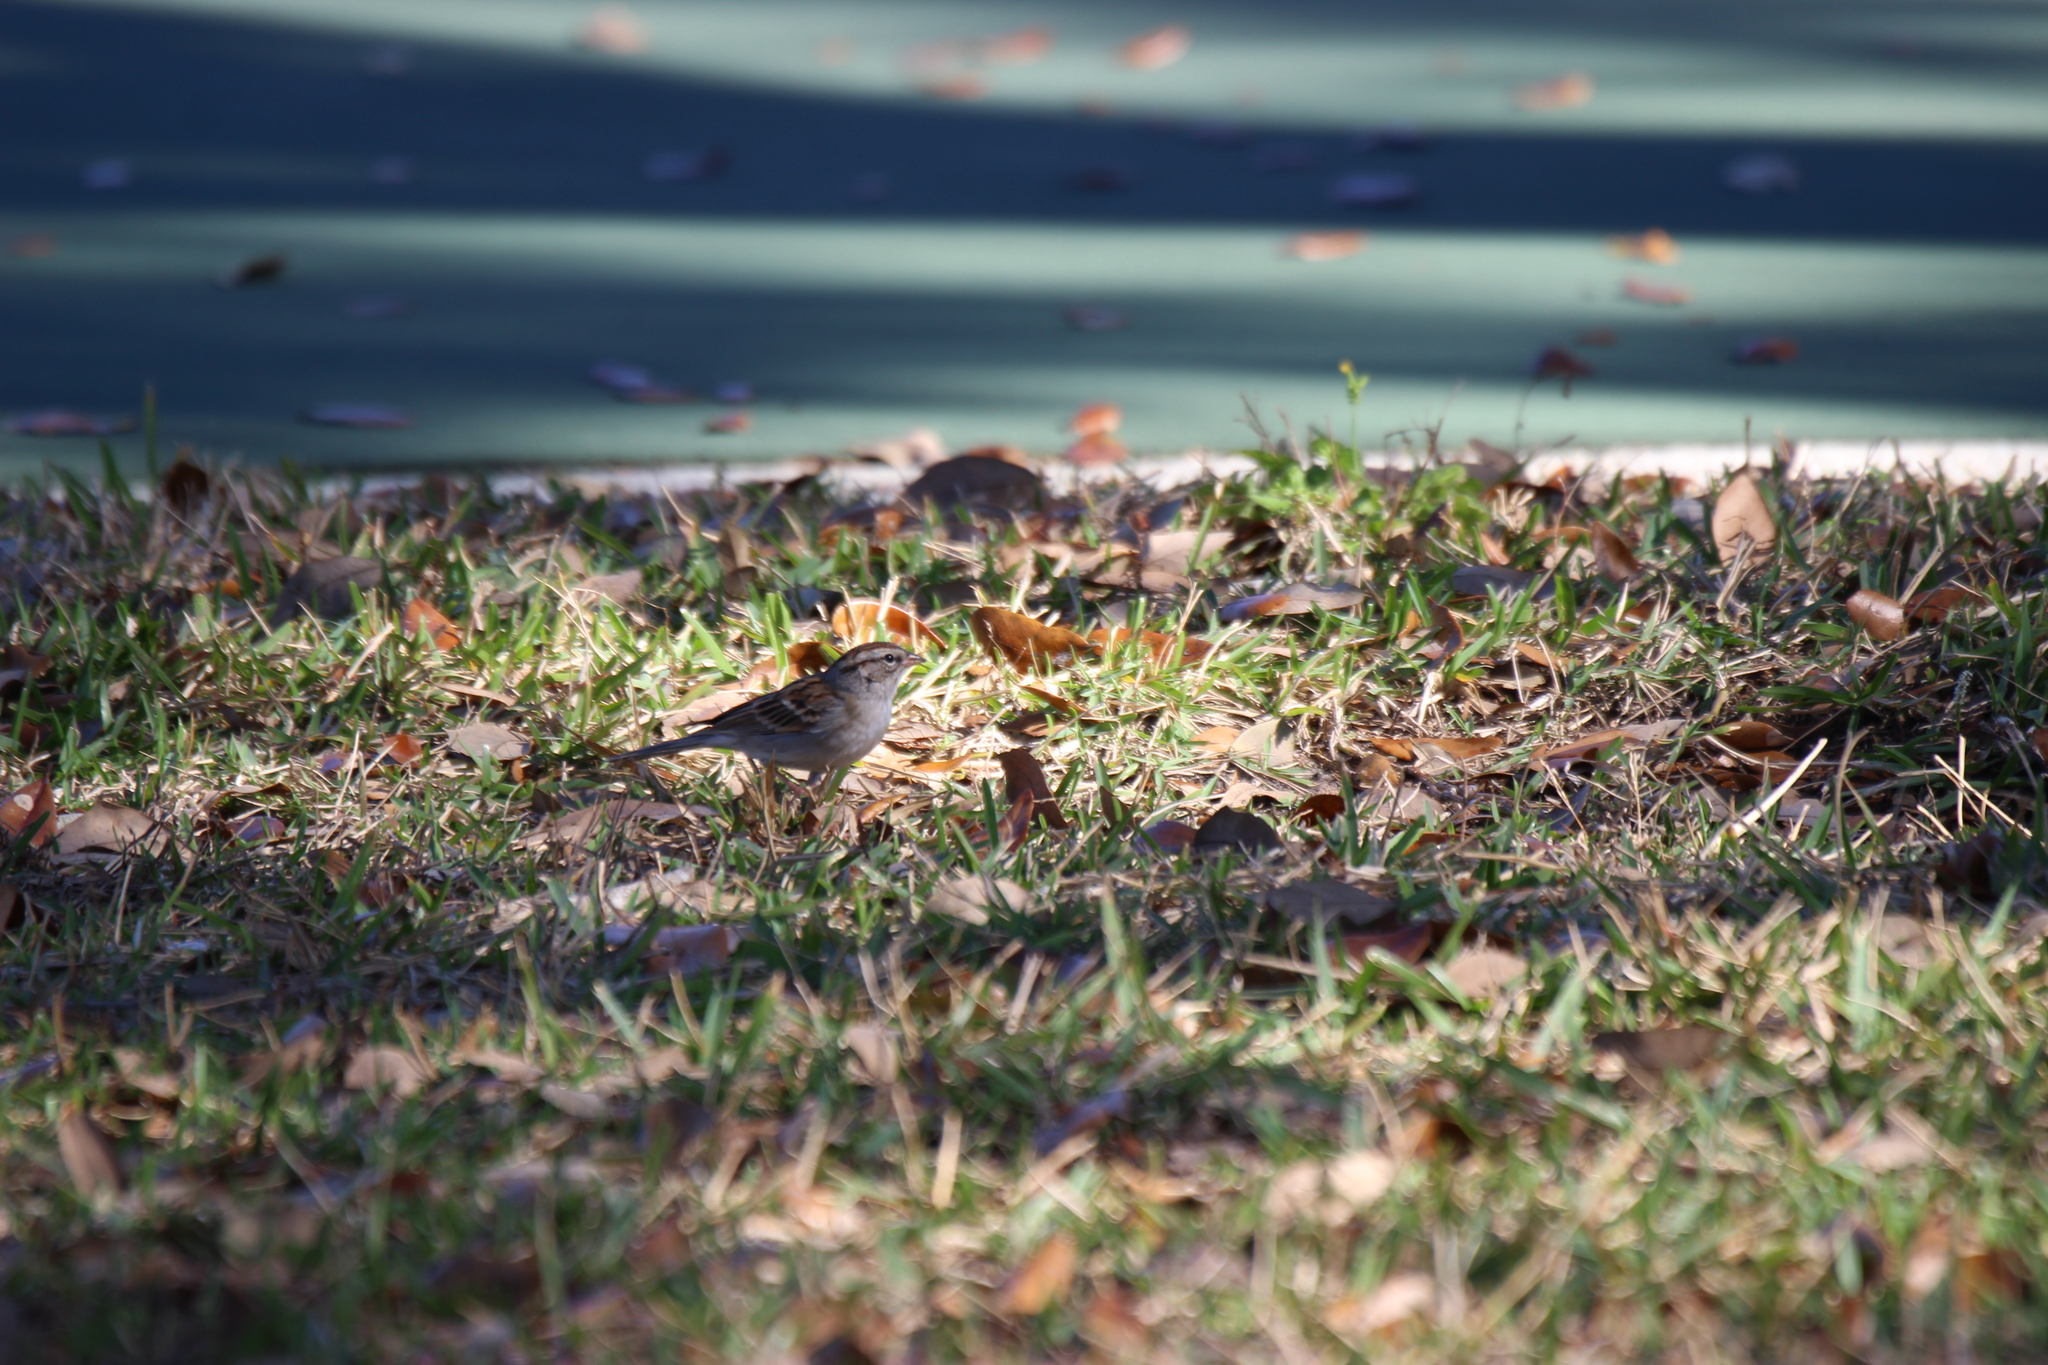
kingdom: Animalia
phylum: Chordata
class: Aves
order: Passeriformes
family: Passerellidae
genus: Spizella
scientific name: Spizella passerina
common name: Chipping sparrow
